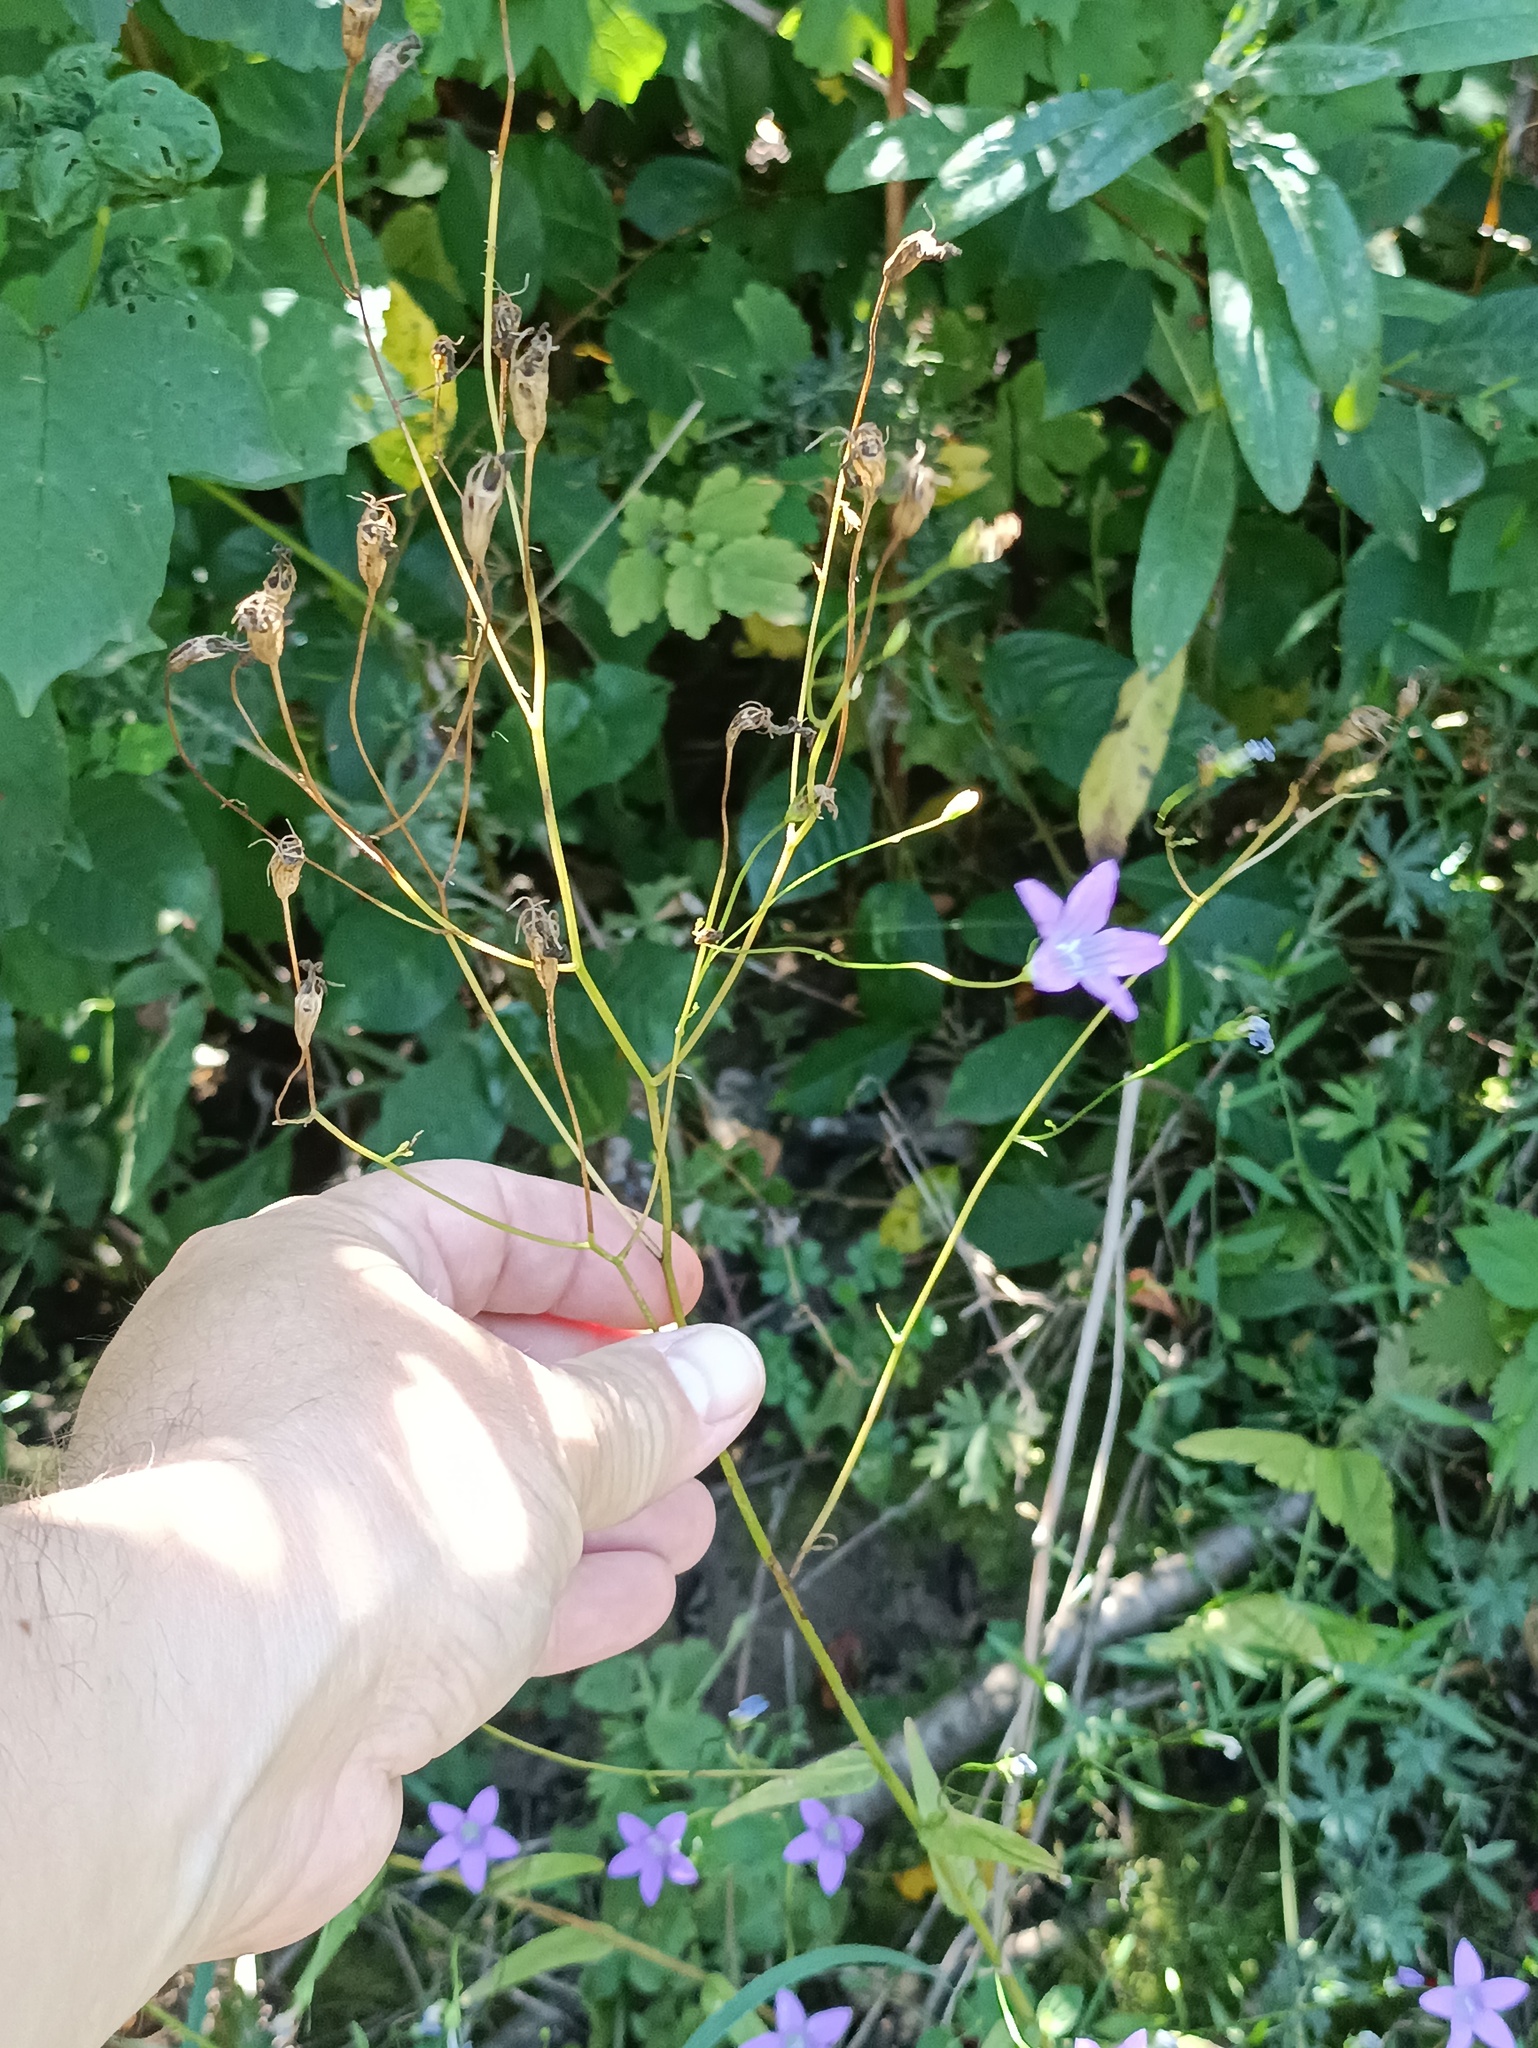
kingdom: Plantae
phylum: Tracheophyta
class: Magnoliopsida
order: Asterales
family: Campanulaceae
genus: Campanula
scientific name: Campanula patula
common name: Spreading bellflower
